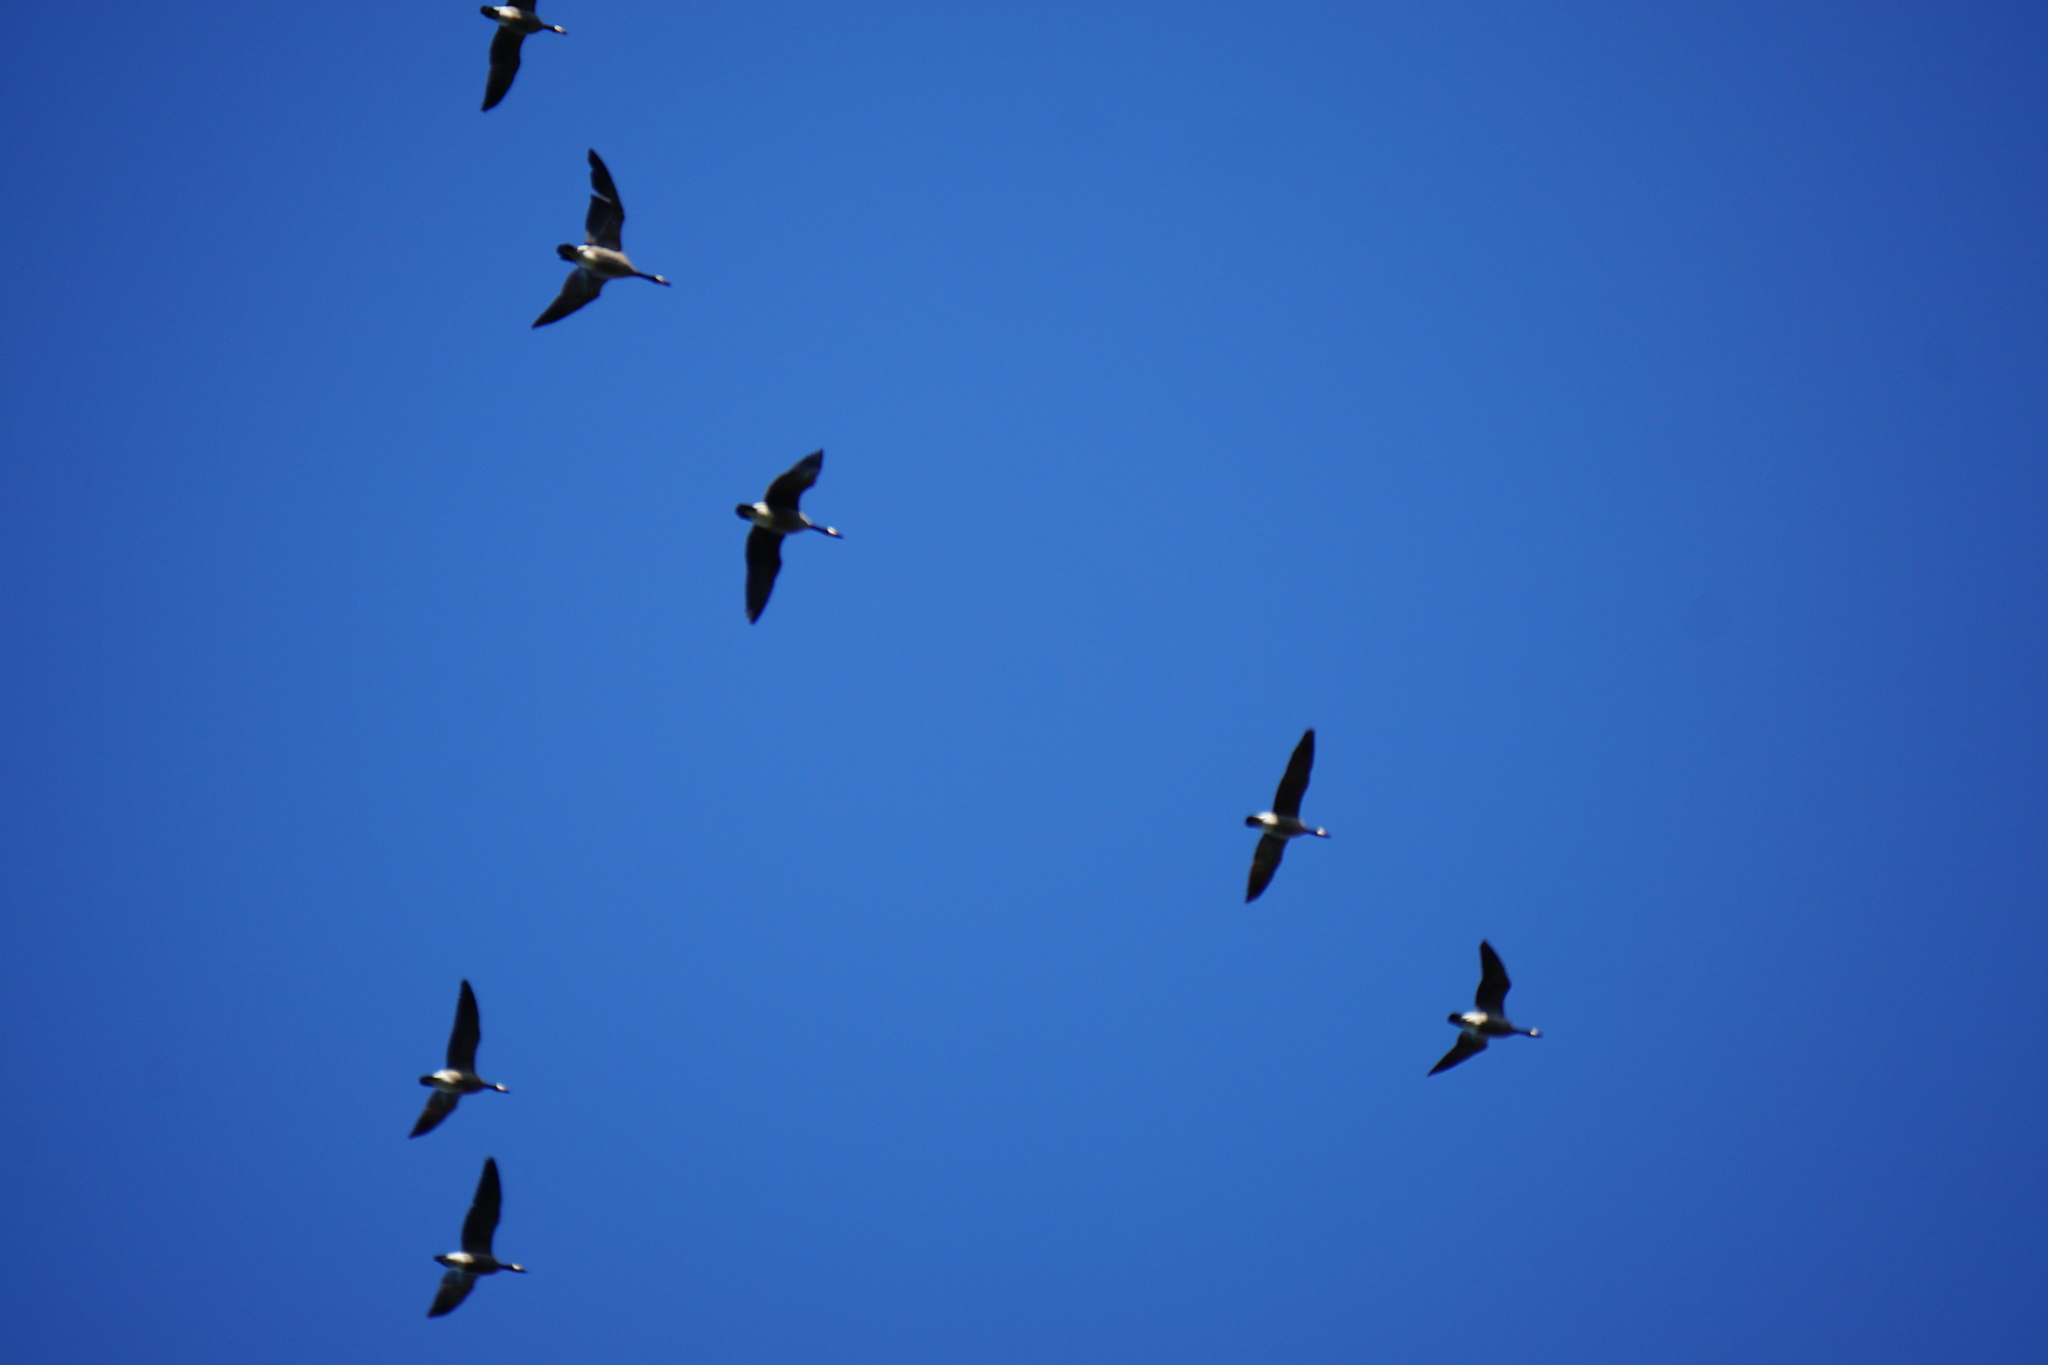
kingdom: Animalia
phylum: Chordata
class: Aves
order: Anseriformes
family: Anatidae
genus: Branta
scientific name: Branta hutchinsii
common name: Cackling goose
